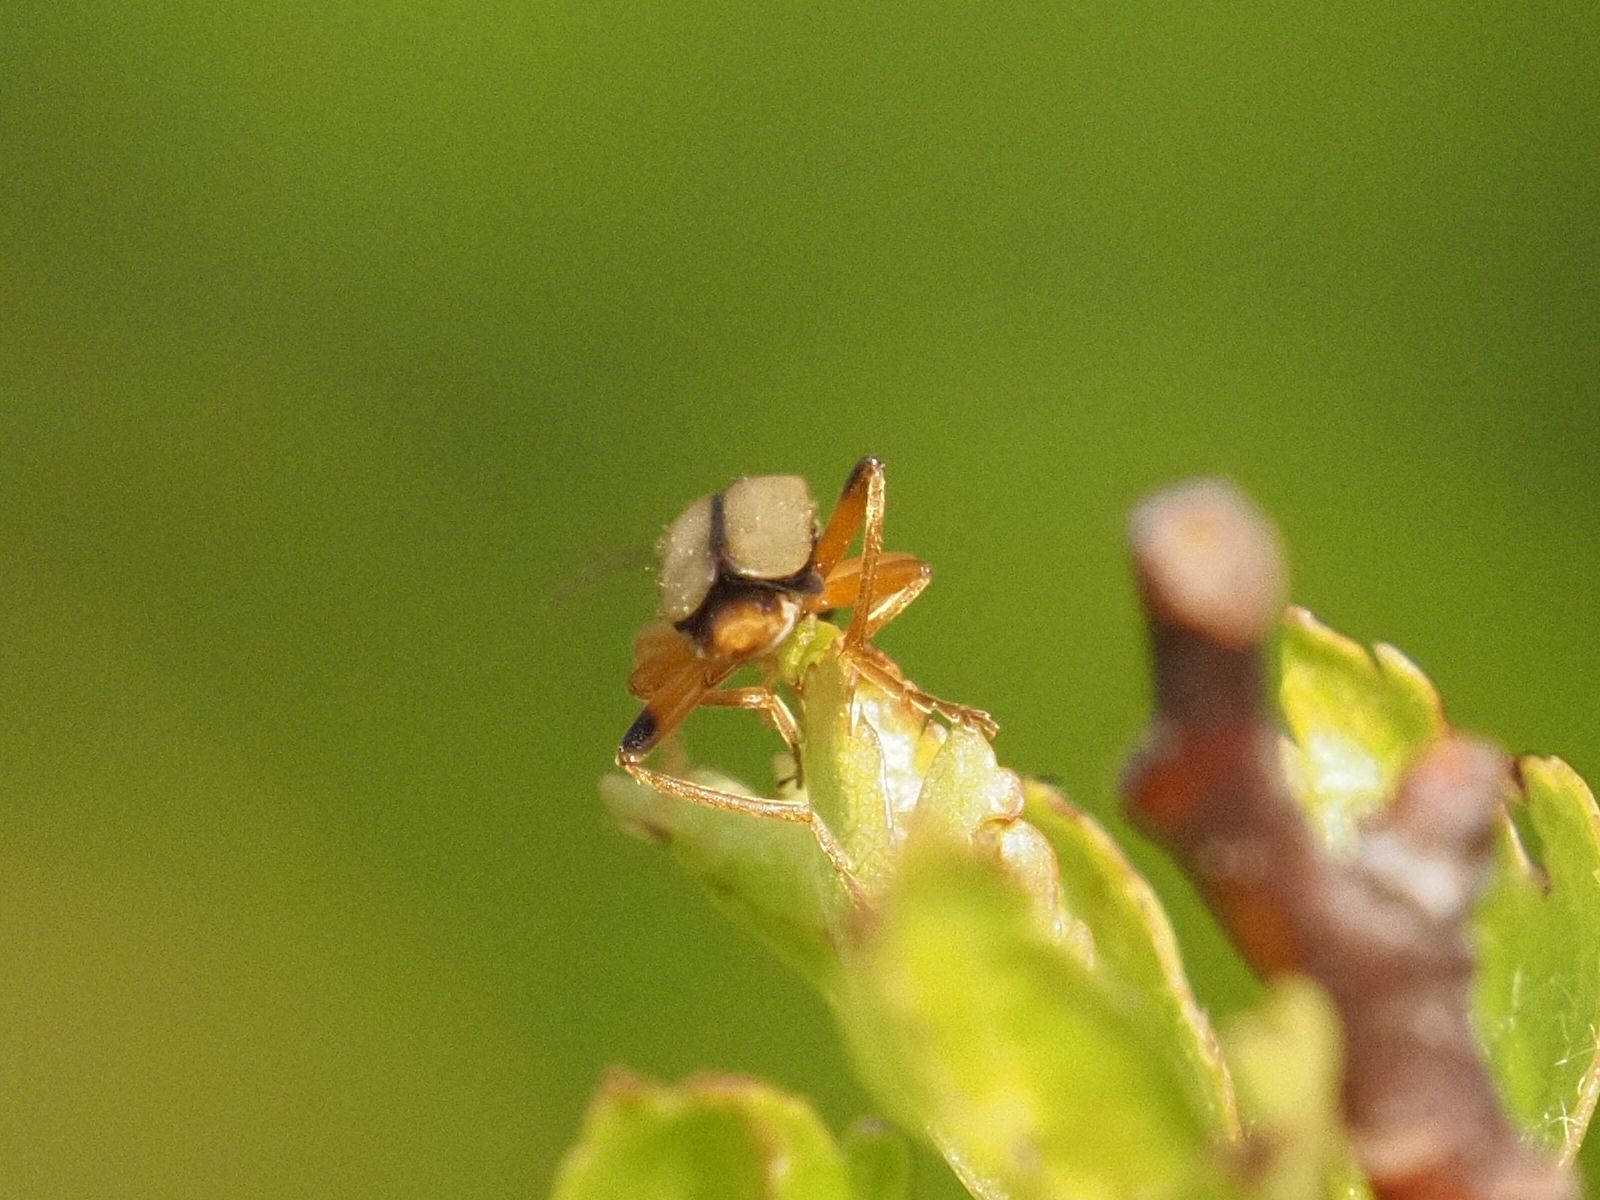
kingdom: Animalia
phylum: Arthropoda
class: Insecta
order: Coleoptera
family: Cantharidae
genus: Metacantharis
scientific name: Metacantharis clypeata
